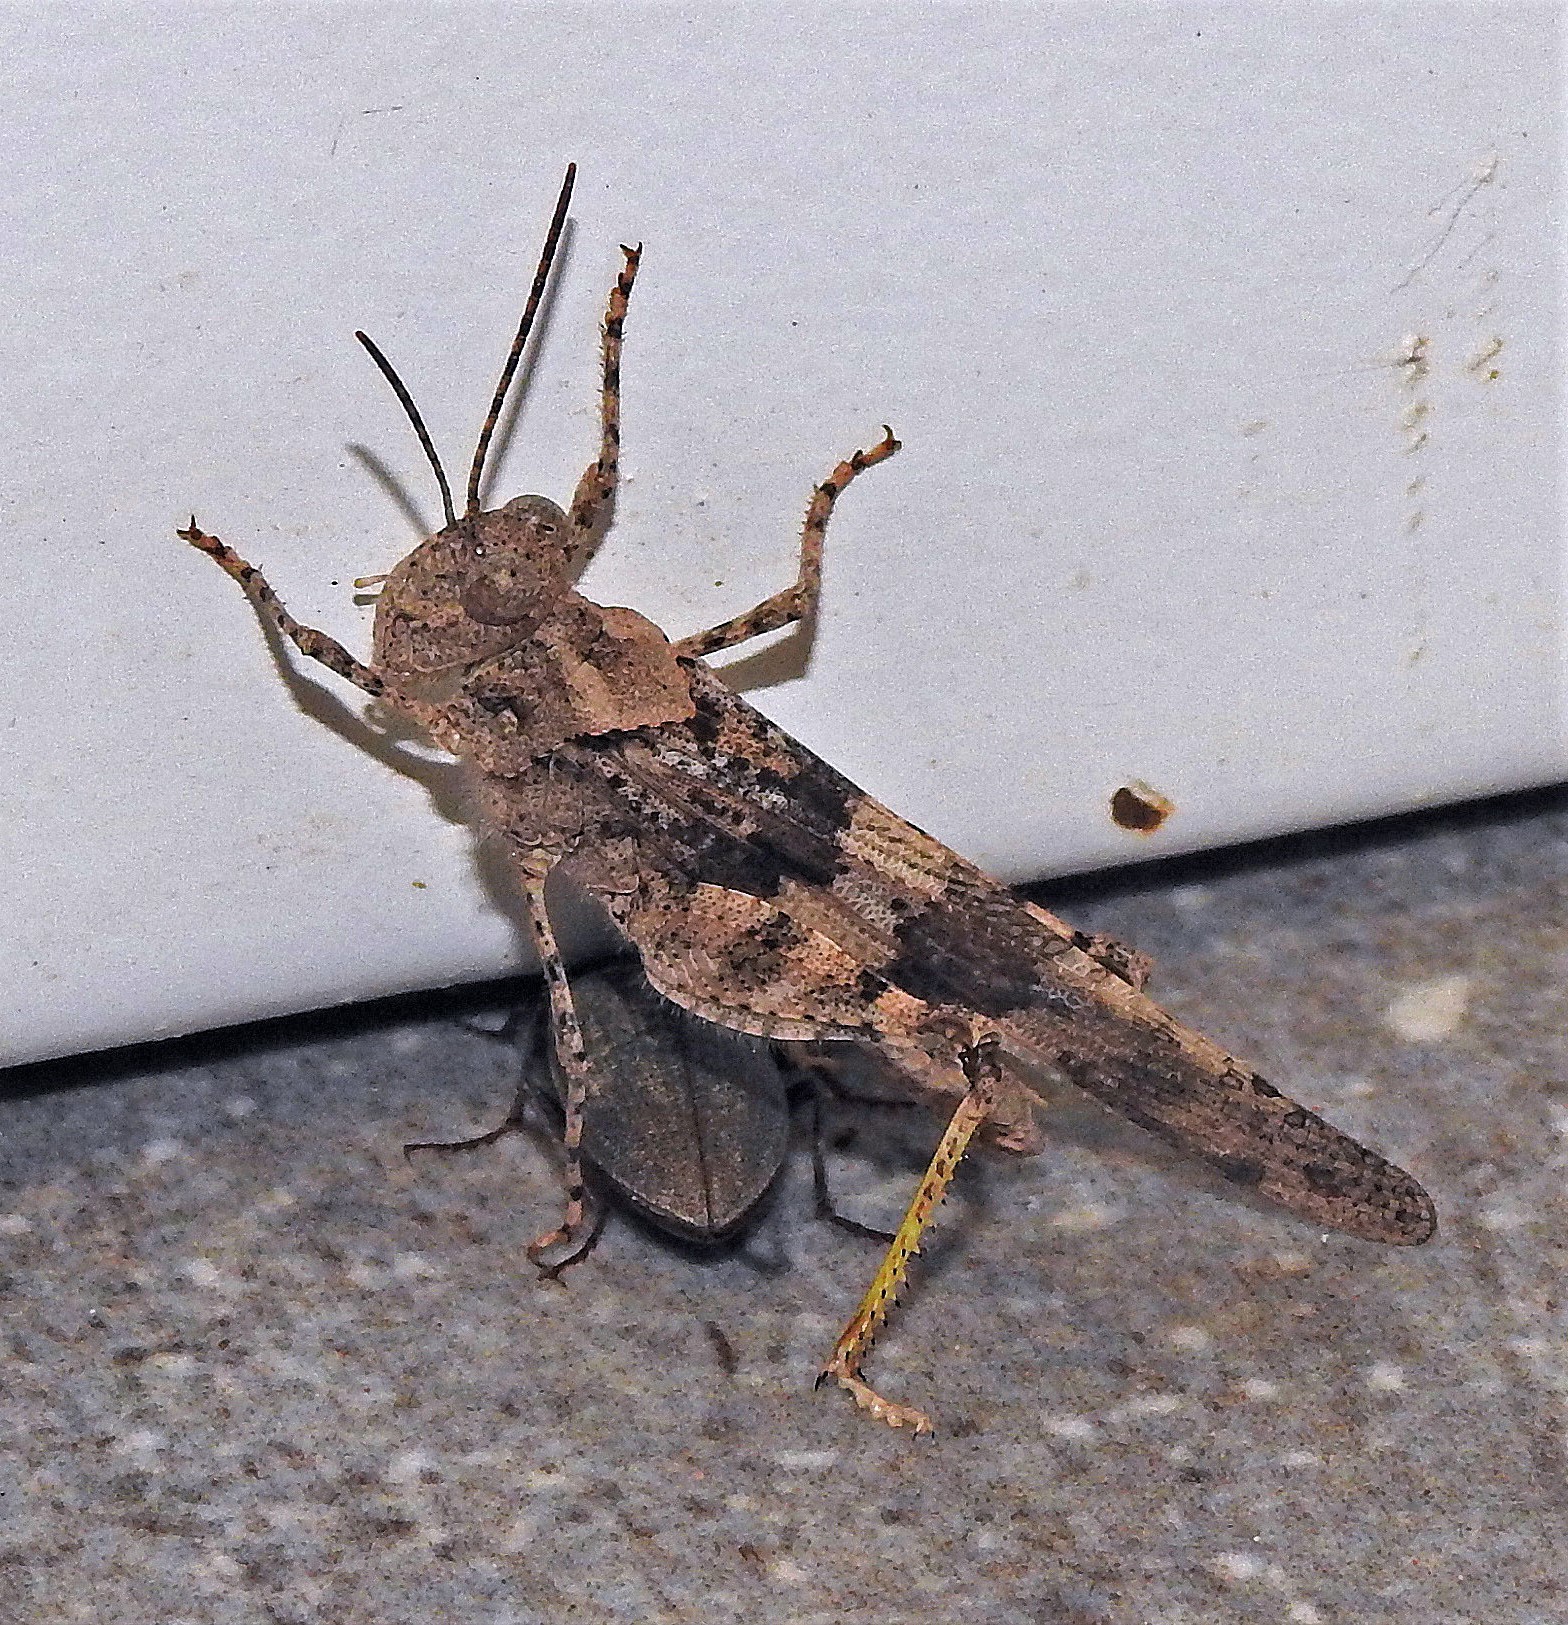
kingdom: Animalia
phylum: Arthropoda
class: Insecta
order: Orthoptera
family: Acrididae
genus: Trimerotropis
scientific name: Trimerotropis pallidipennis
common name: Pallid-winged grasshopper
